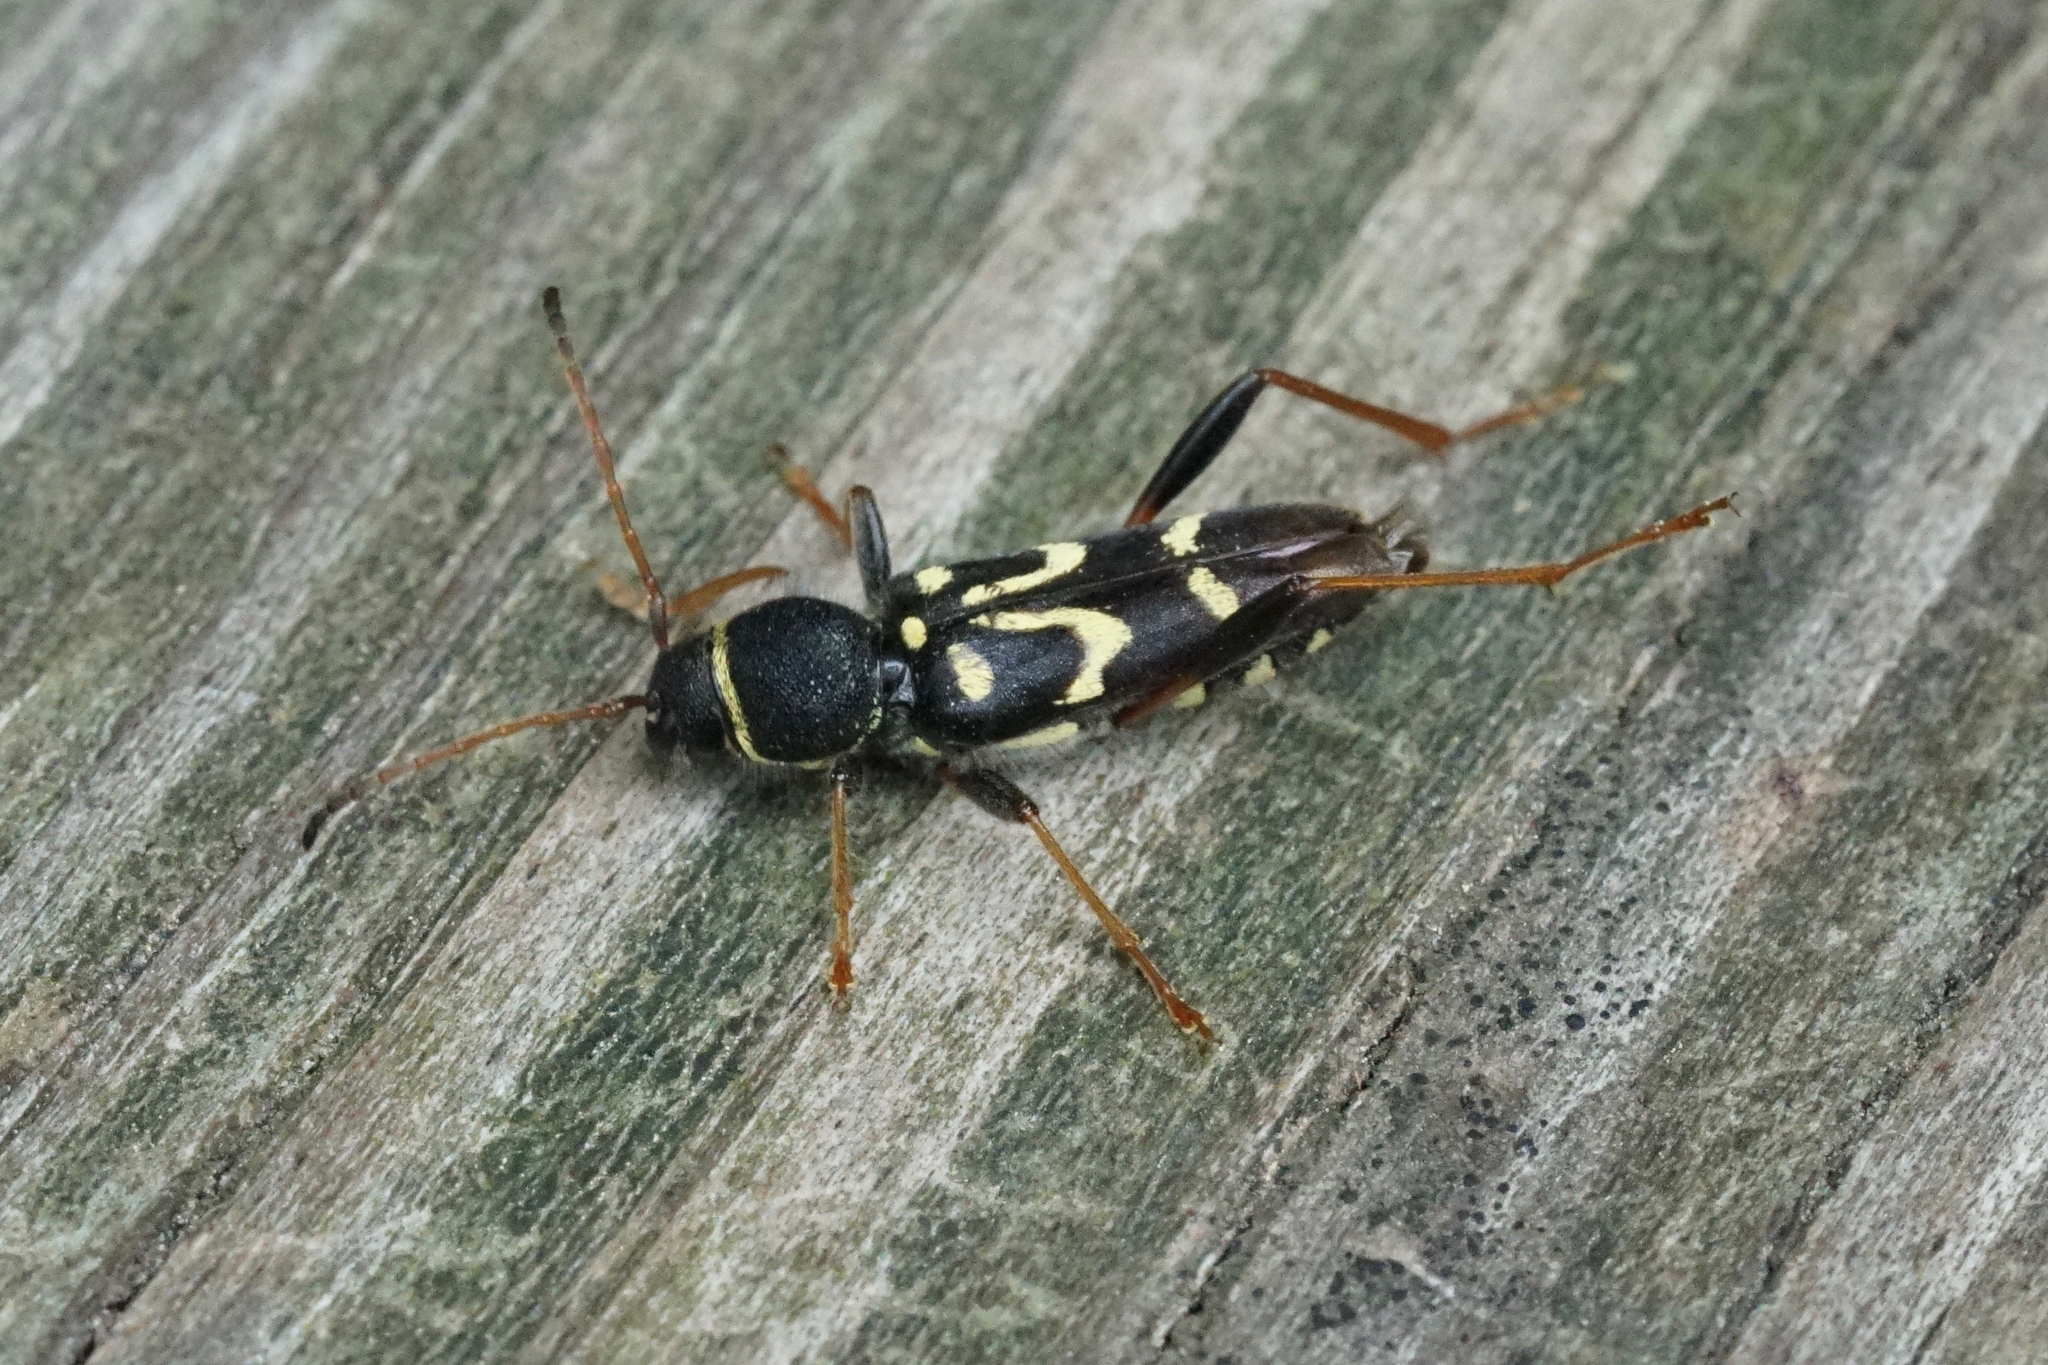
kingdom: Animalia
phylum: Arthropoda
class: Insecta
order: Coleoptera
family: Cerambycidae
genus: Clytus
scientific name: Clytus ruricola
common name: Round-necked longhorn beetle
